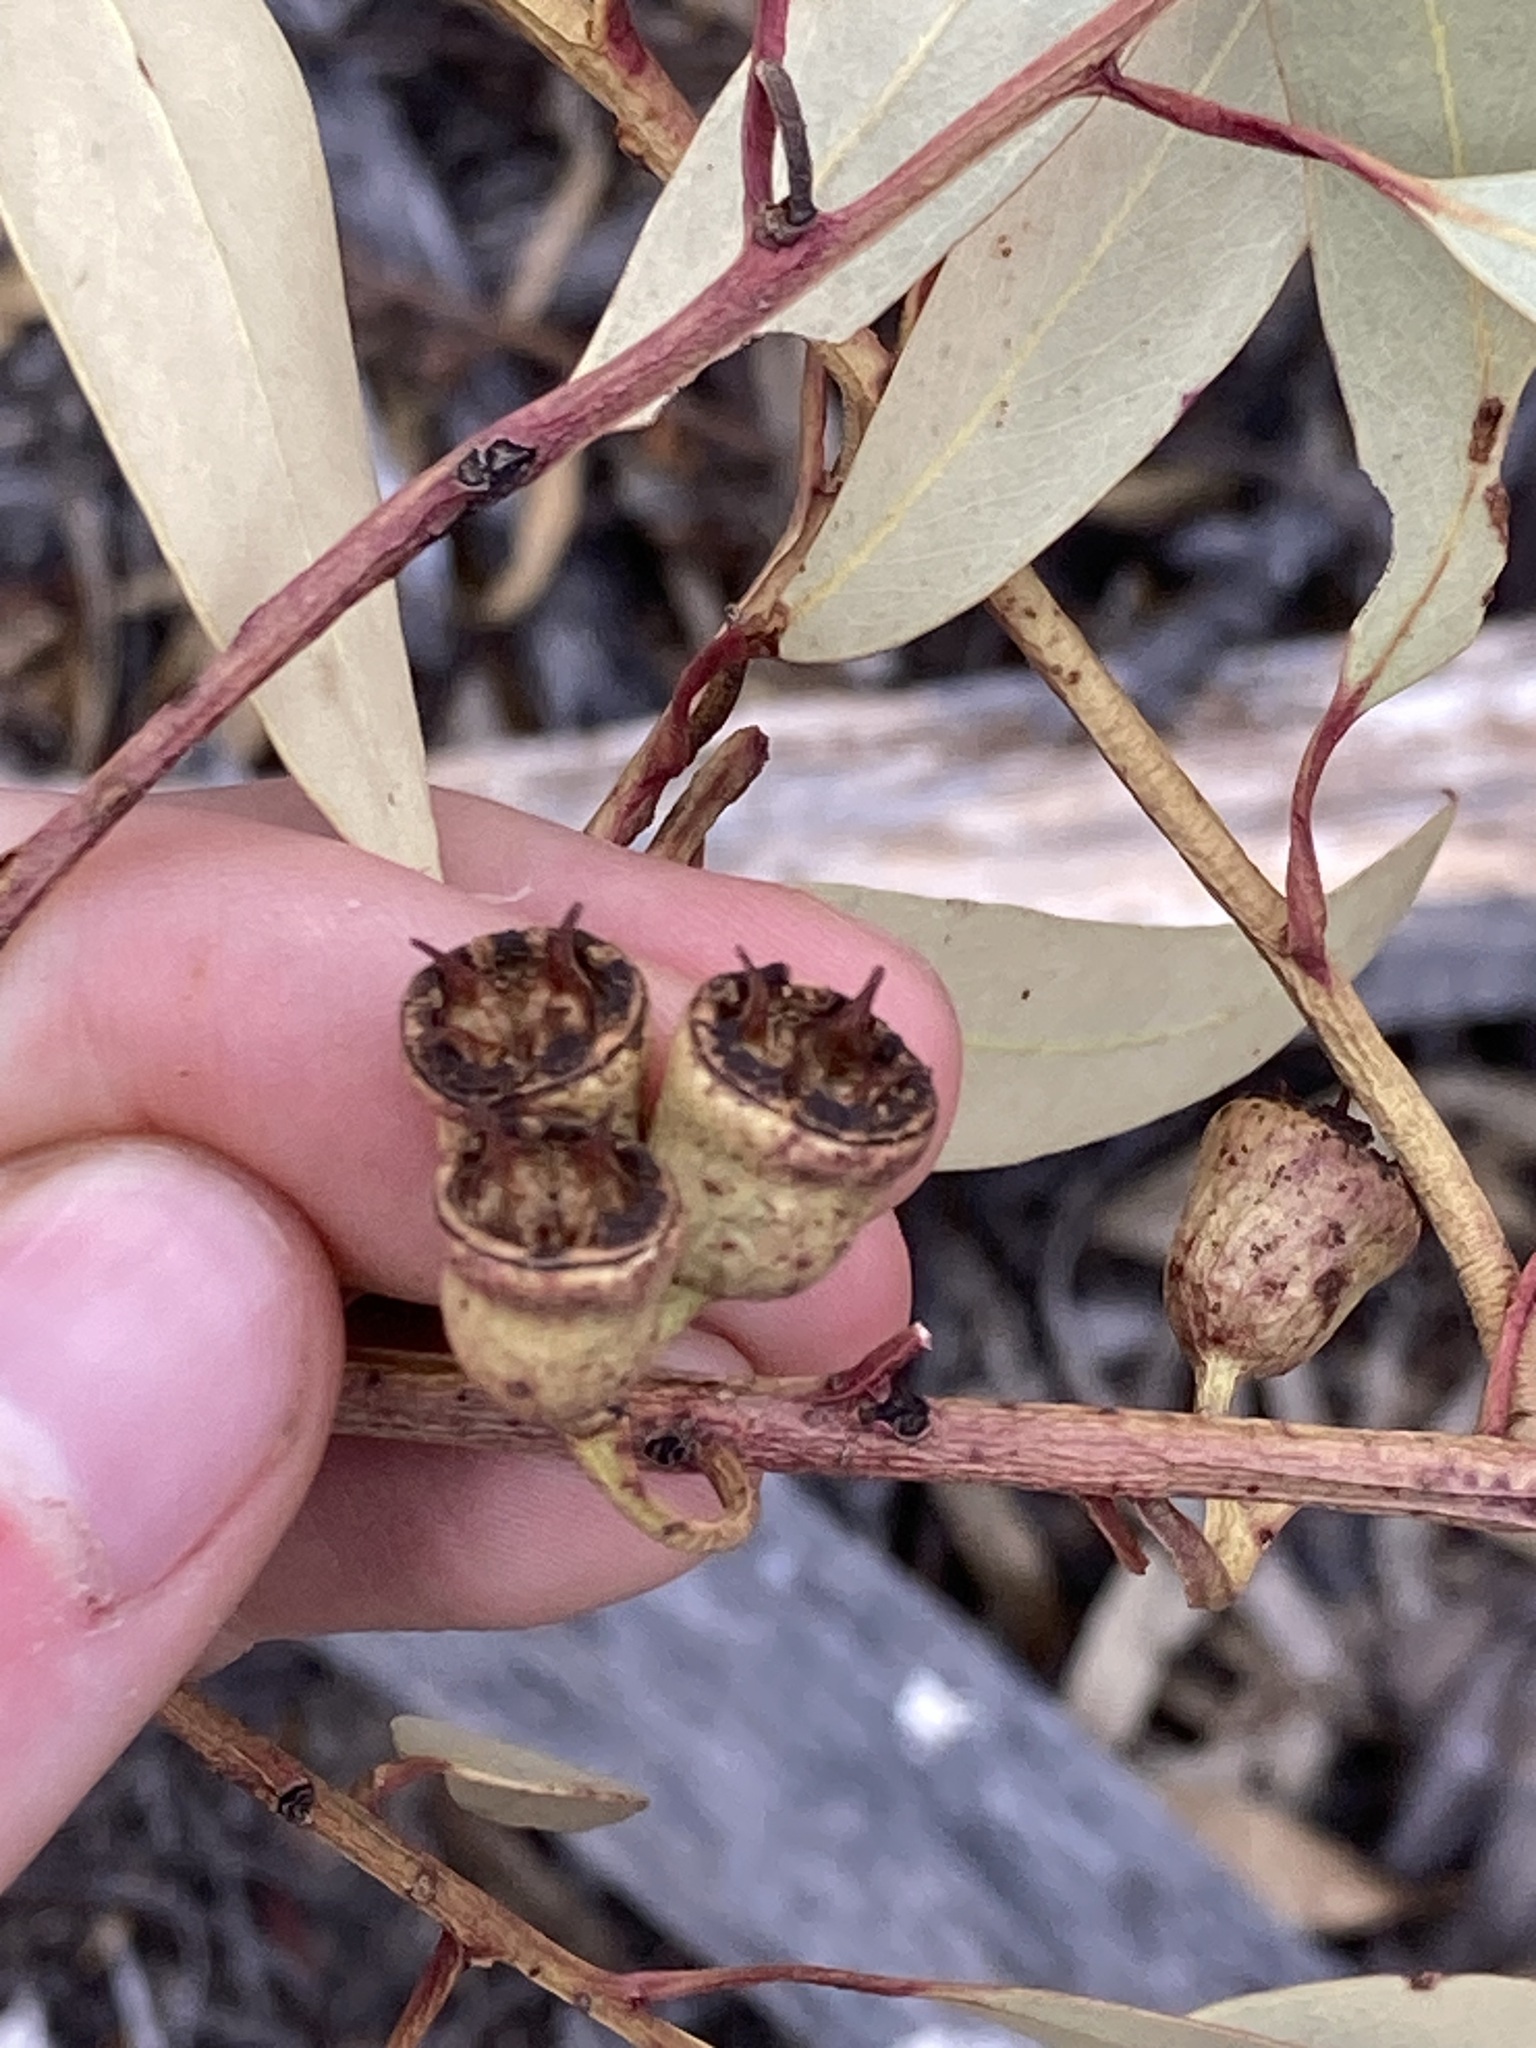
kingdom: Plantae
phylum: Tracheophyta
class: Magnoliopsida
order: Myrtales
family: Myrtaceae
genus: Eucalyptus
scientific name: Eucalyptus occidentalis
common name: Swamp yate
